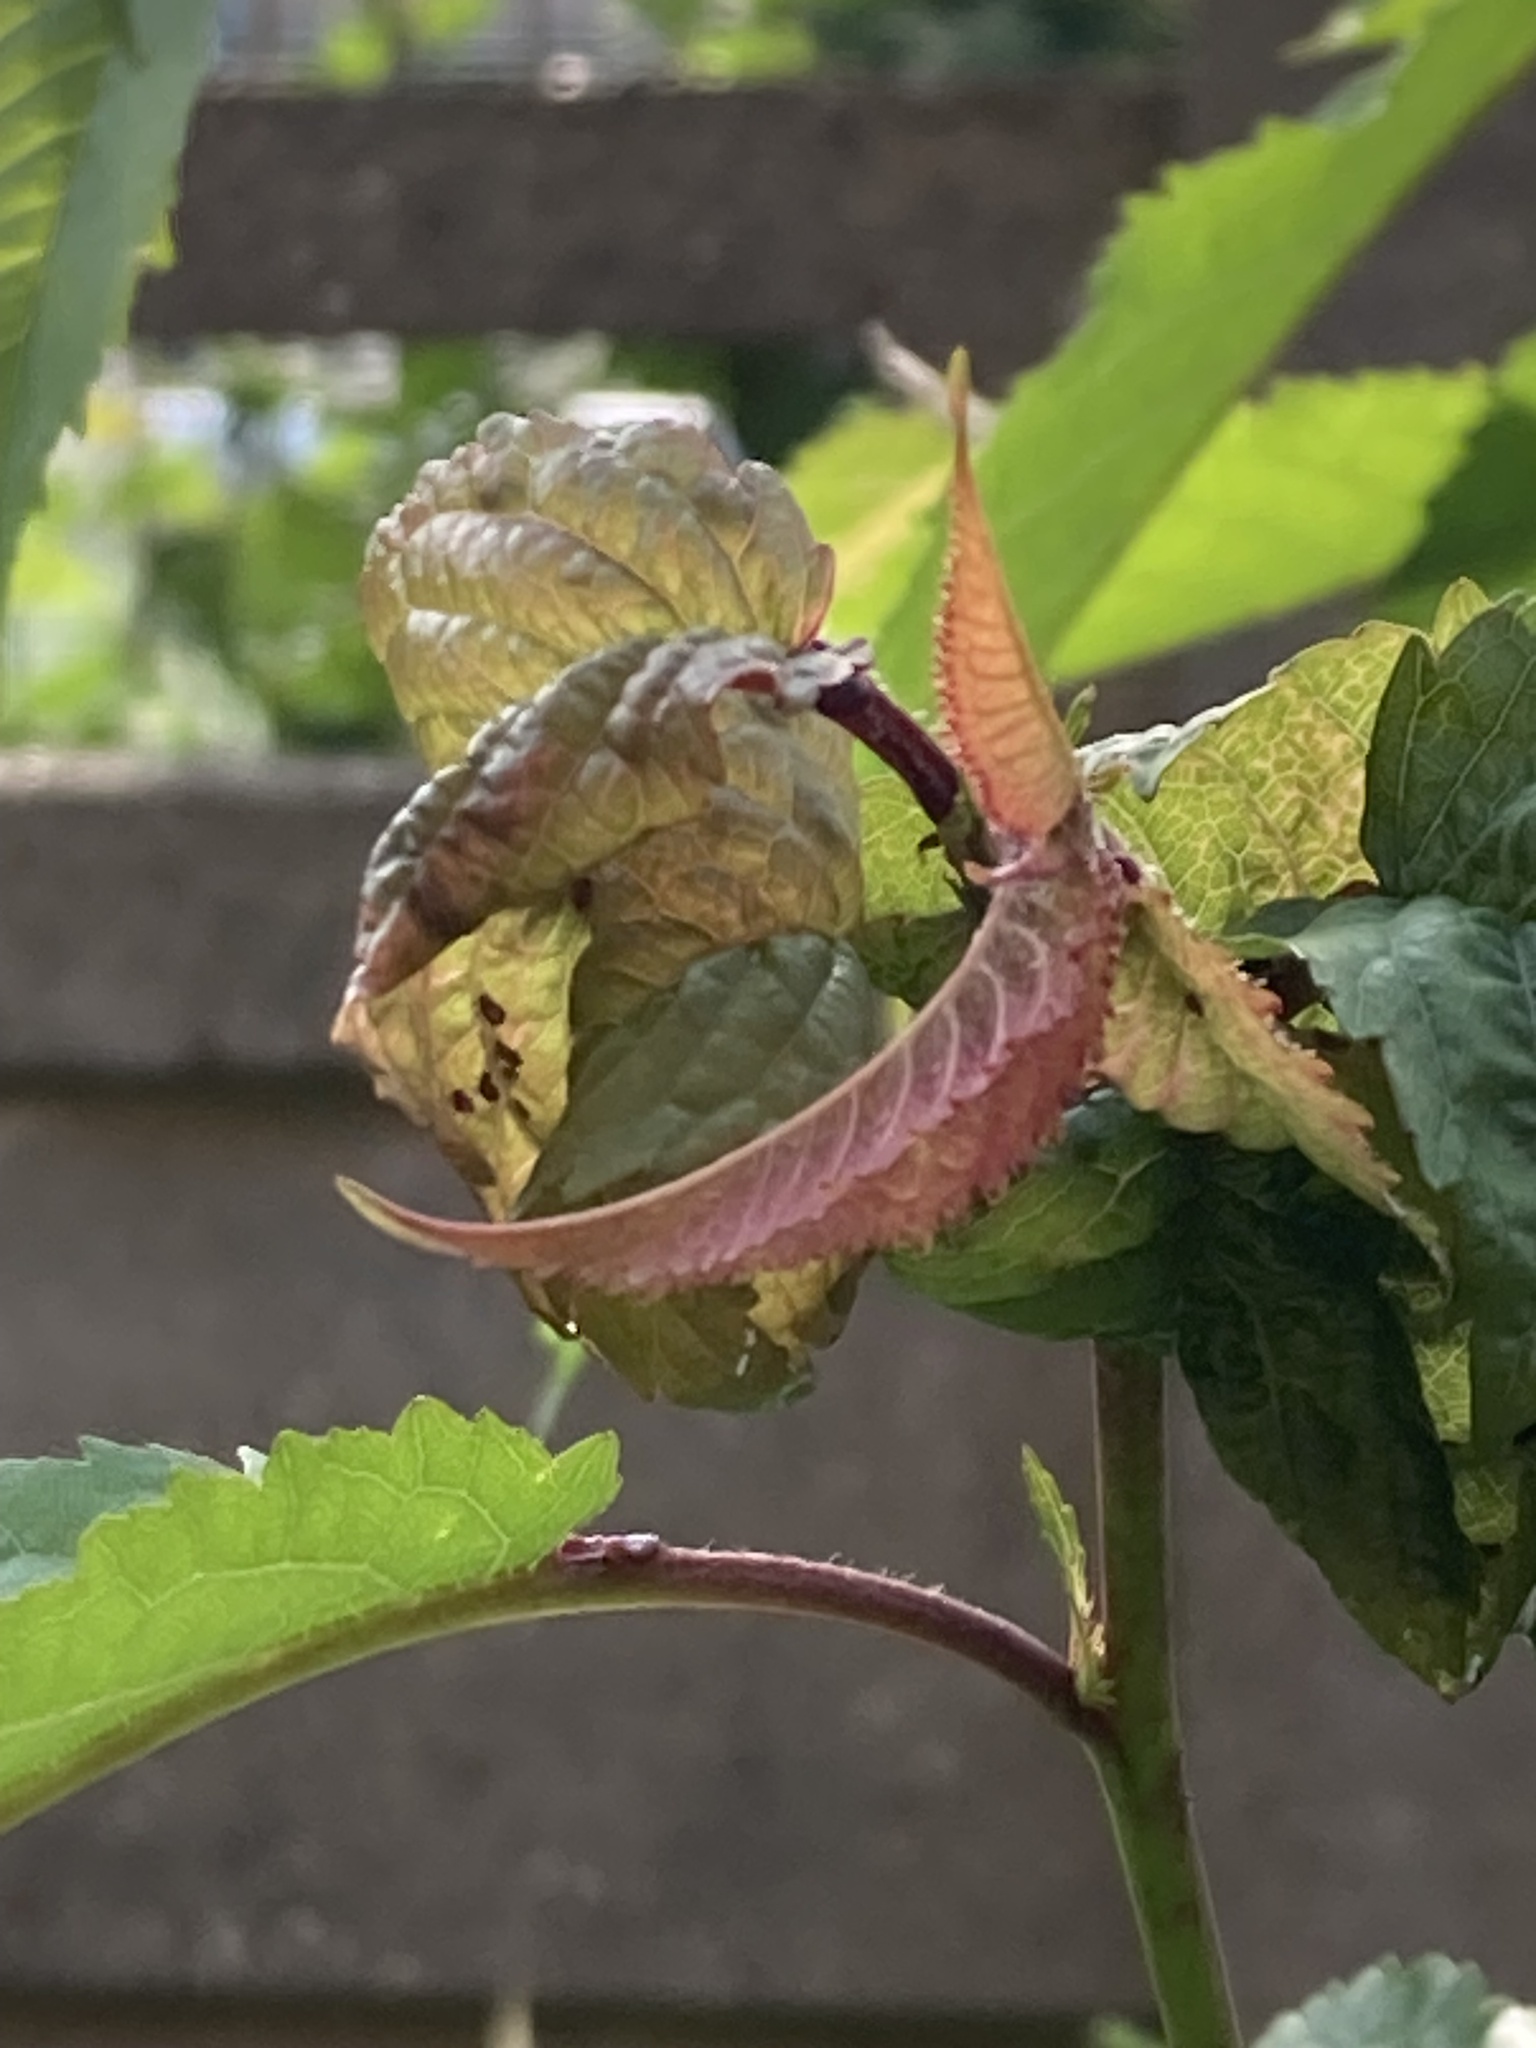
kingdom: Animalia
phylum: Arthropoda
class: Insecta
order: Hemiptera
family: Aphididae
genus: Myzus
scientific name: Myzus cerasi
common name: Black cherry aphid
